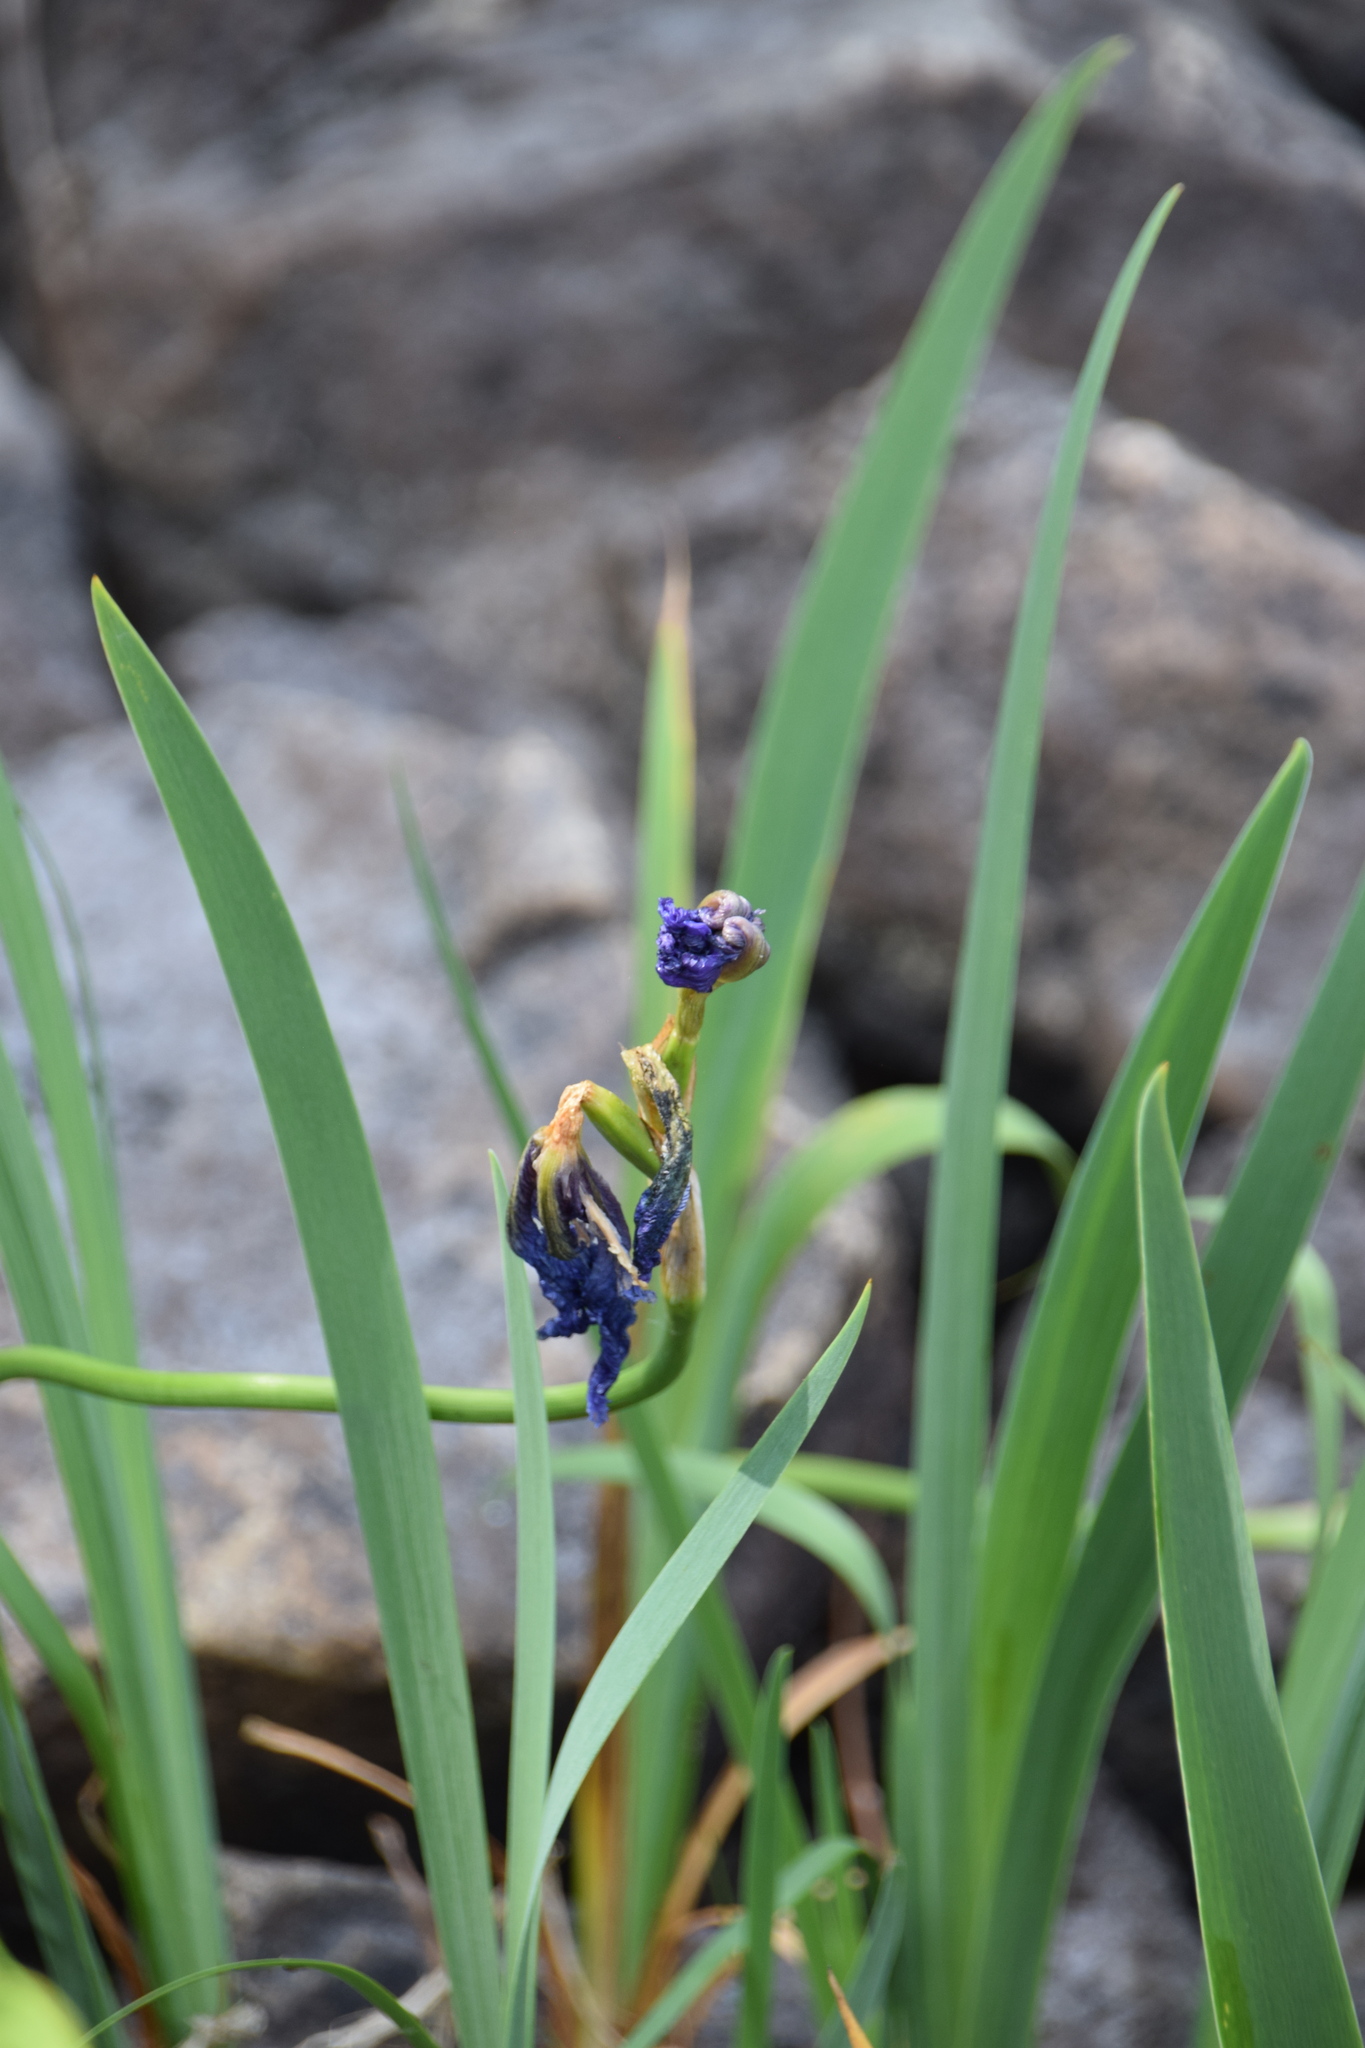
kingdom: Plantae
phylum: Tracheophyta
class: Liliopsida
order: Asparagales
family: Iridaceae
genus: Iris
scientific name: Iris versicolor
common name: Purple iris
